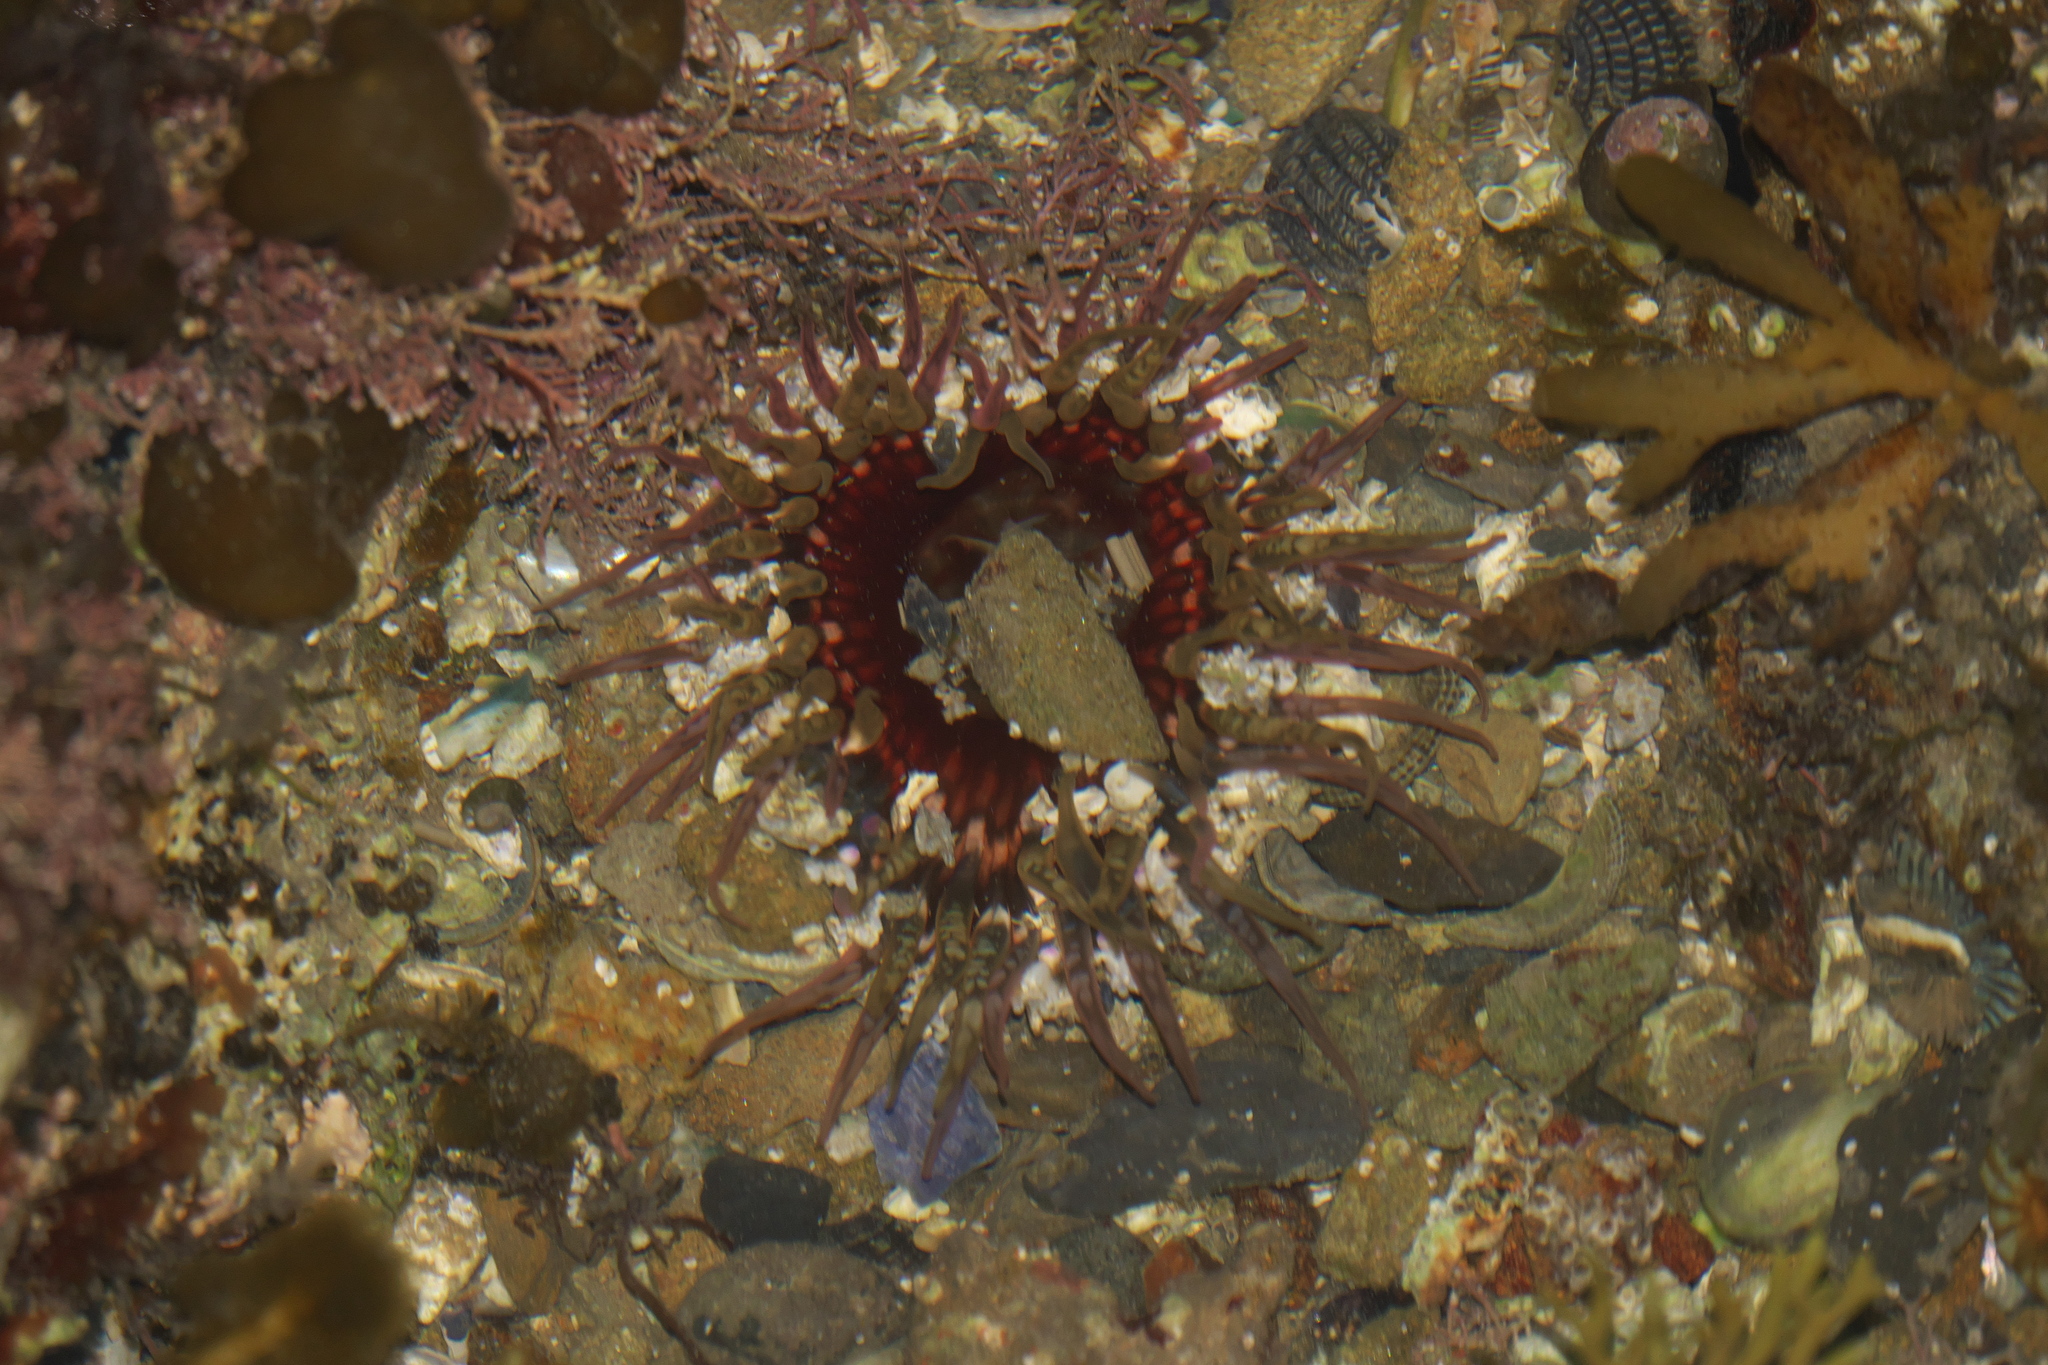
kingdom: Animalia
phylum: Cnidaria
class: Anthozoa
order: Actiniaria
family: Actiniidae
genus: Oulactis
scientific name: Oulactis muscosa
